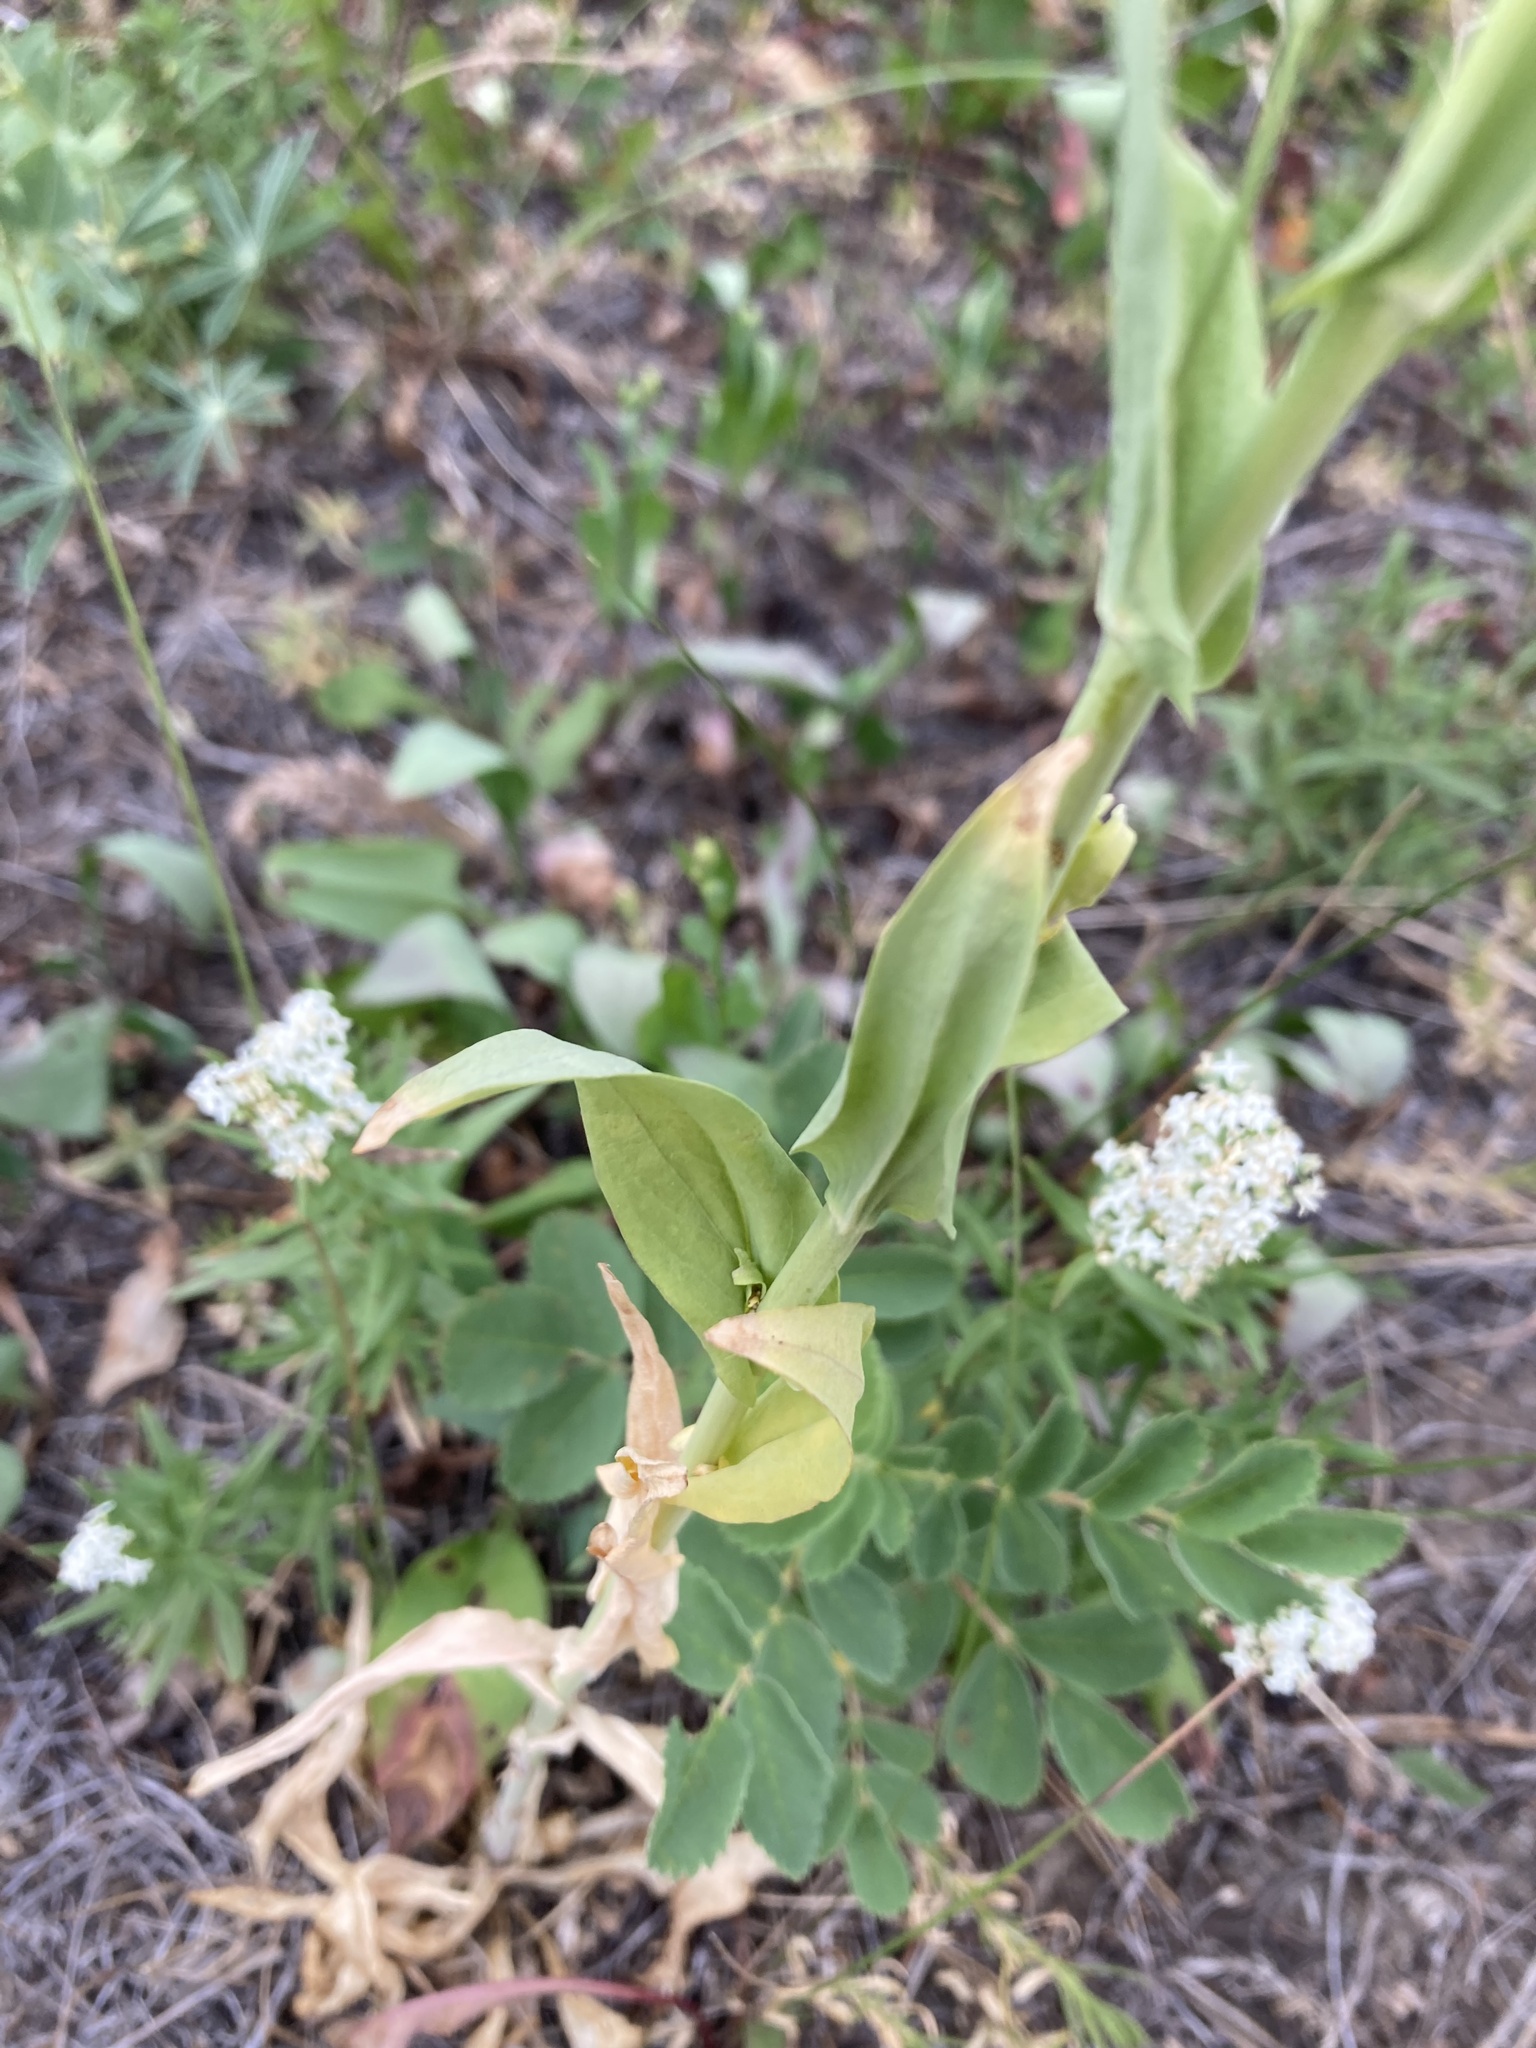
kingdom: Plantae
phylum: Tracheophyta
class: Magnoliopsida
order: Brassicales
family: Brassicaceae
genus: Turritis
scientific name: Turritis glabra
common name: Tower rockcress
